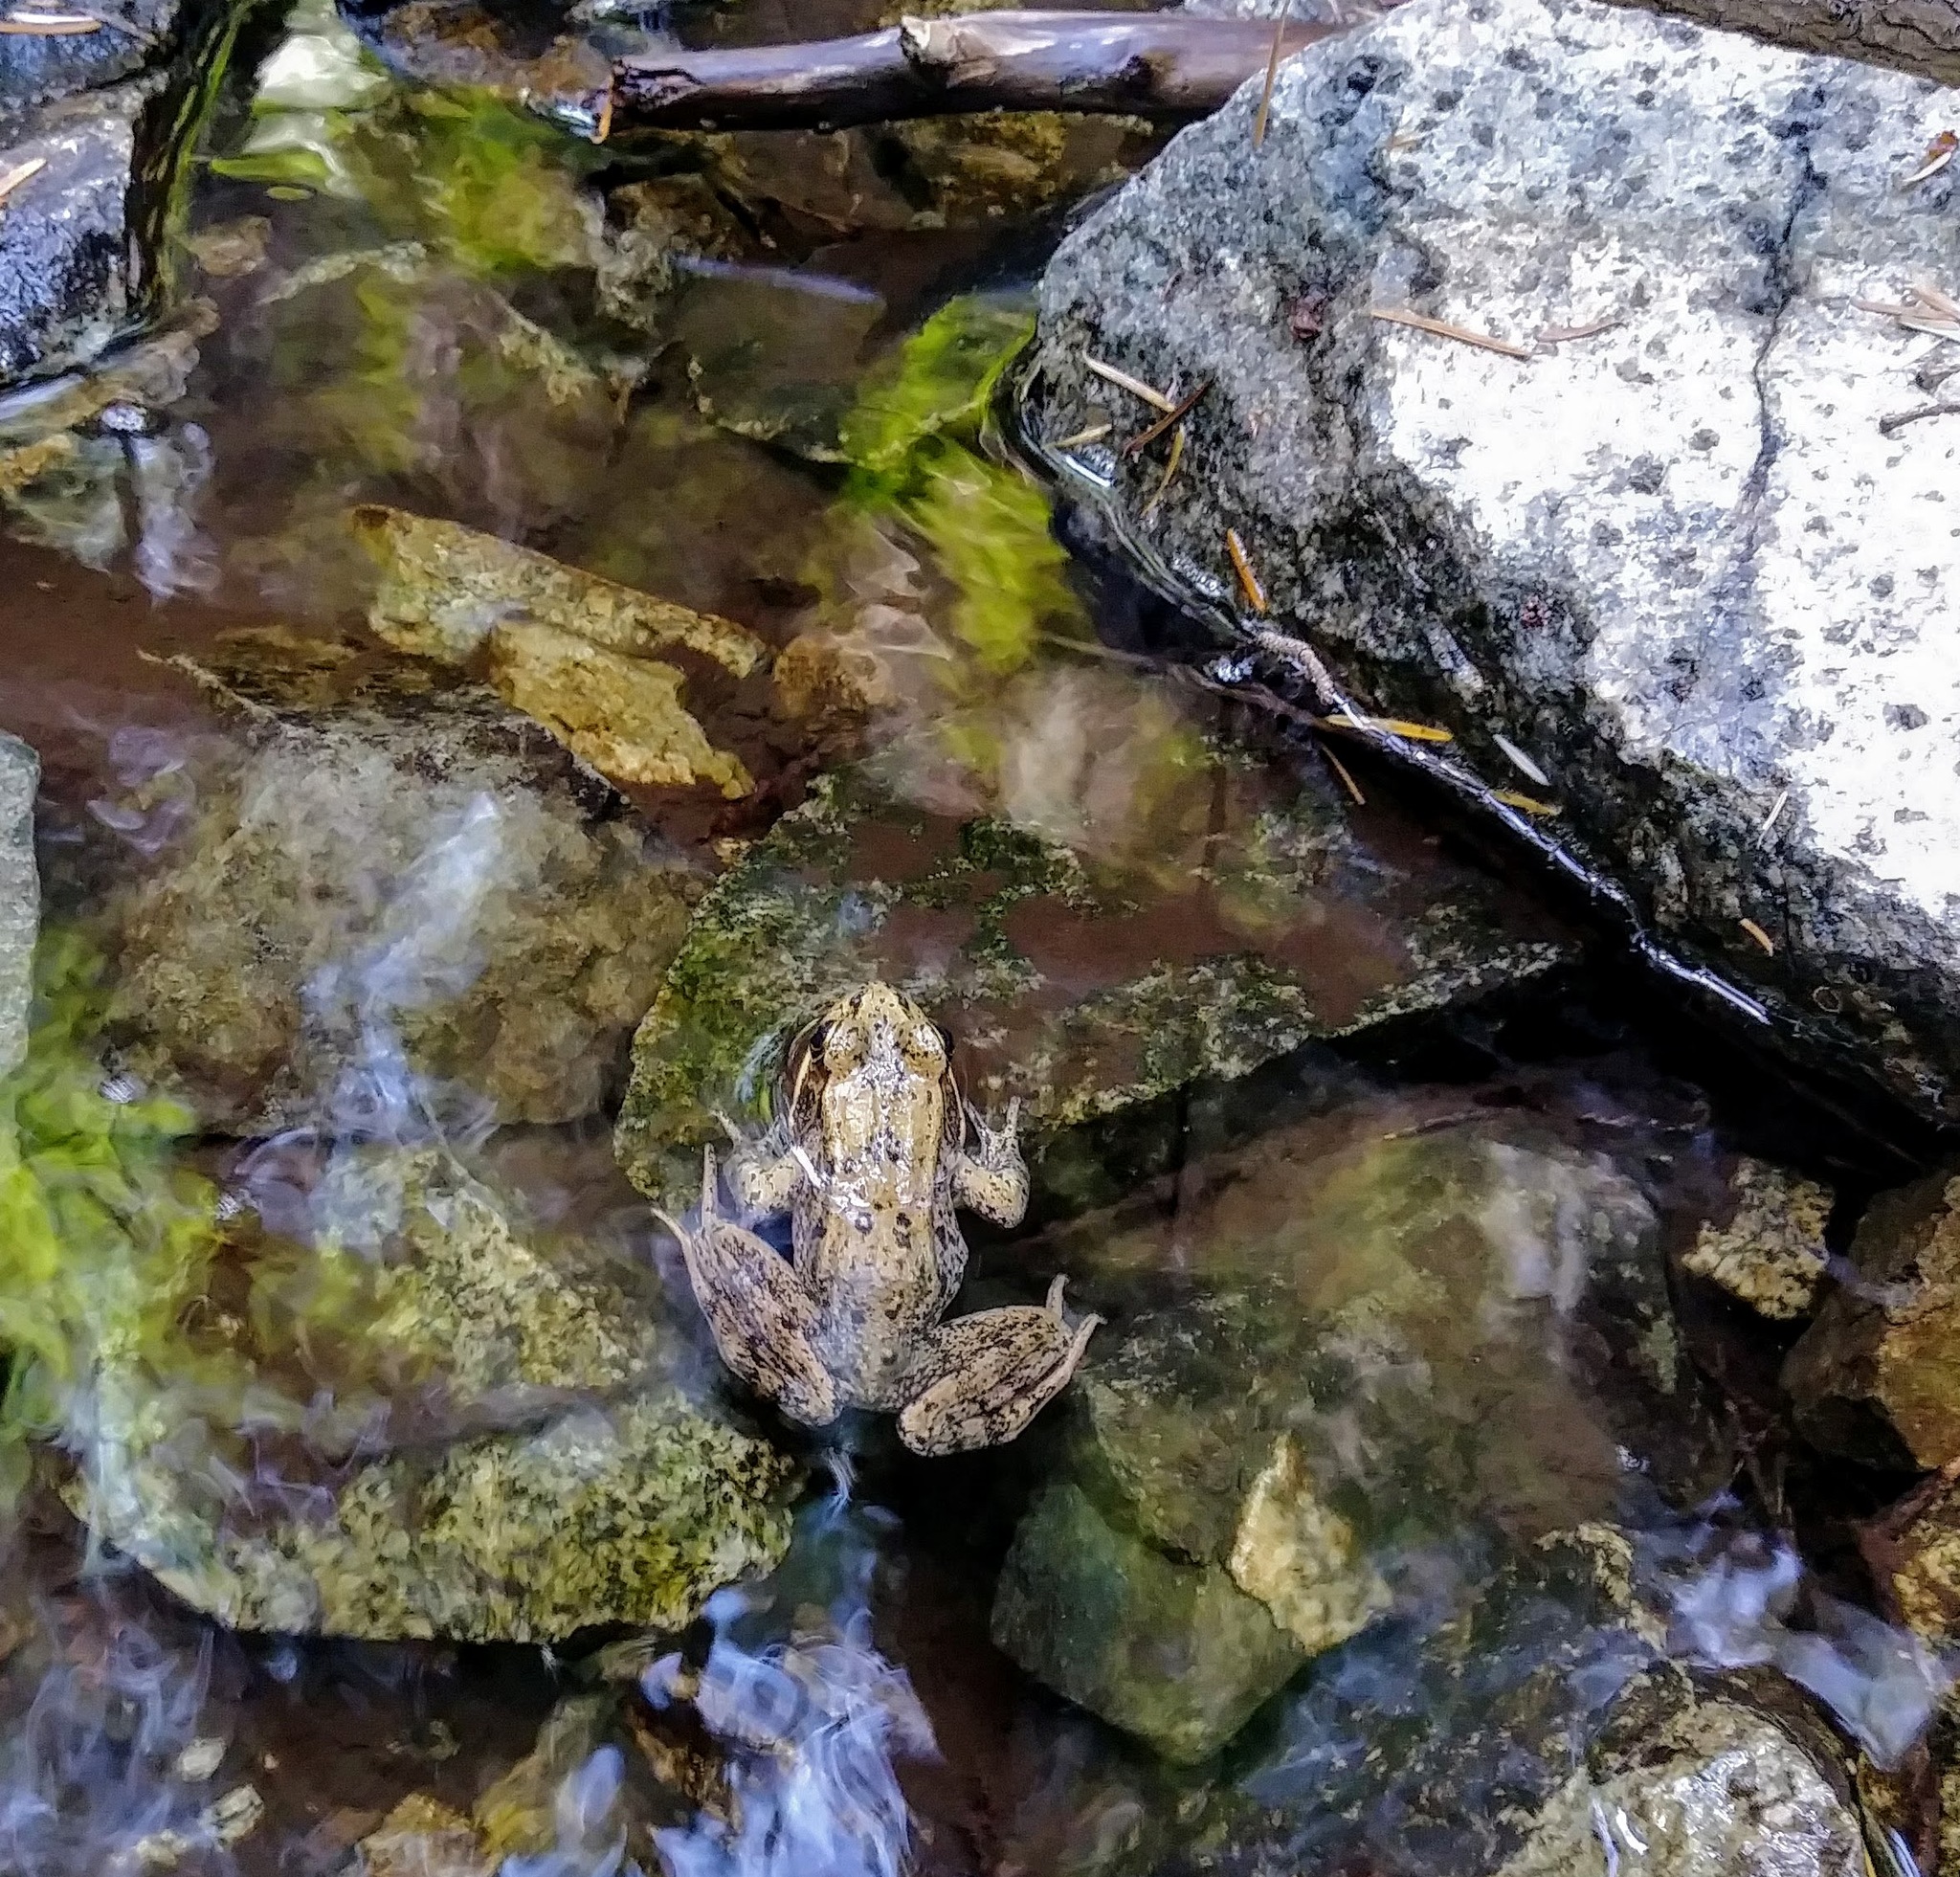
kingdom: Animalia
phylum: Chordata
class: Amphibia
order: Anura
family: Ranidae
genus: Rana
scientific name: Rana aurora
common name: Red-legged frog
